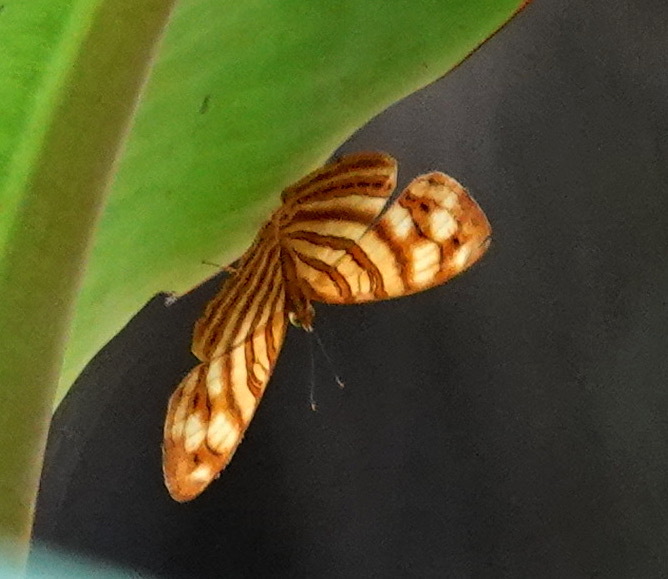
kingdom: Animalia
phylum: Arthropoda
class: Insecta
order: Lepidoptera
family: Nymphalidae
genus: Chersonesia
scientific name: Chersonesia rahria
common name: Wavy maplet
